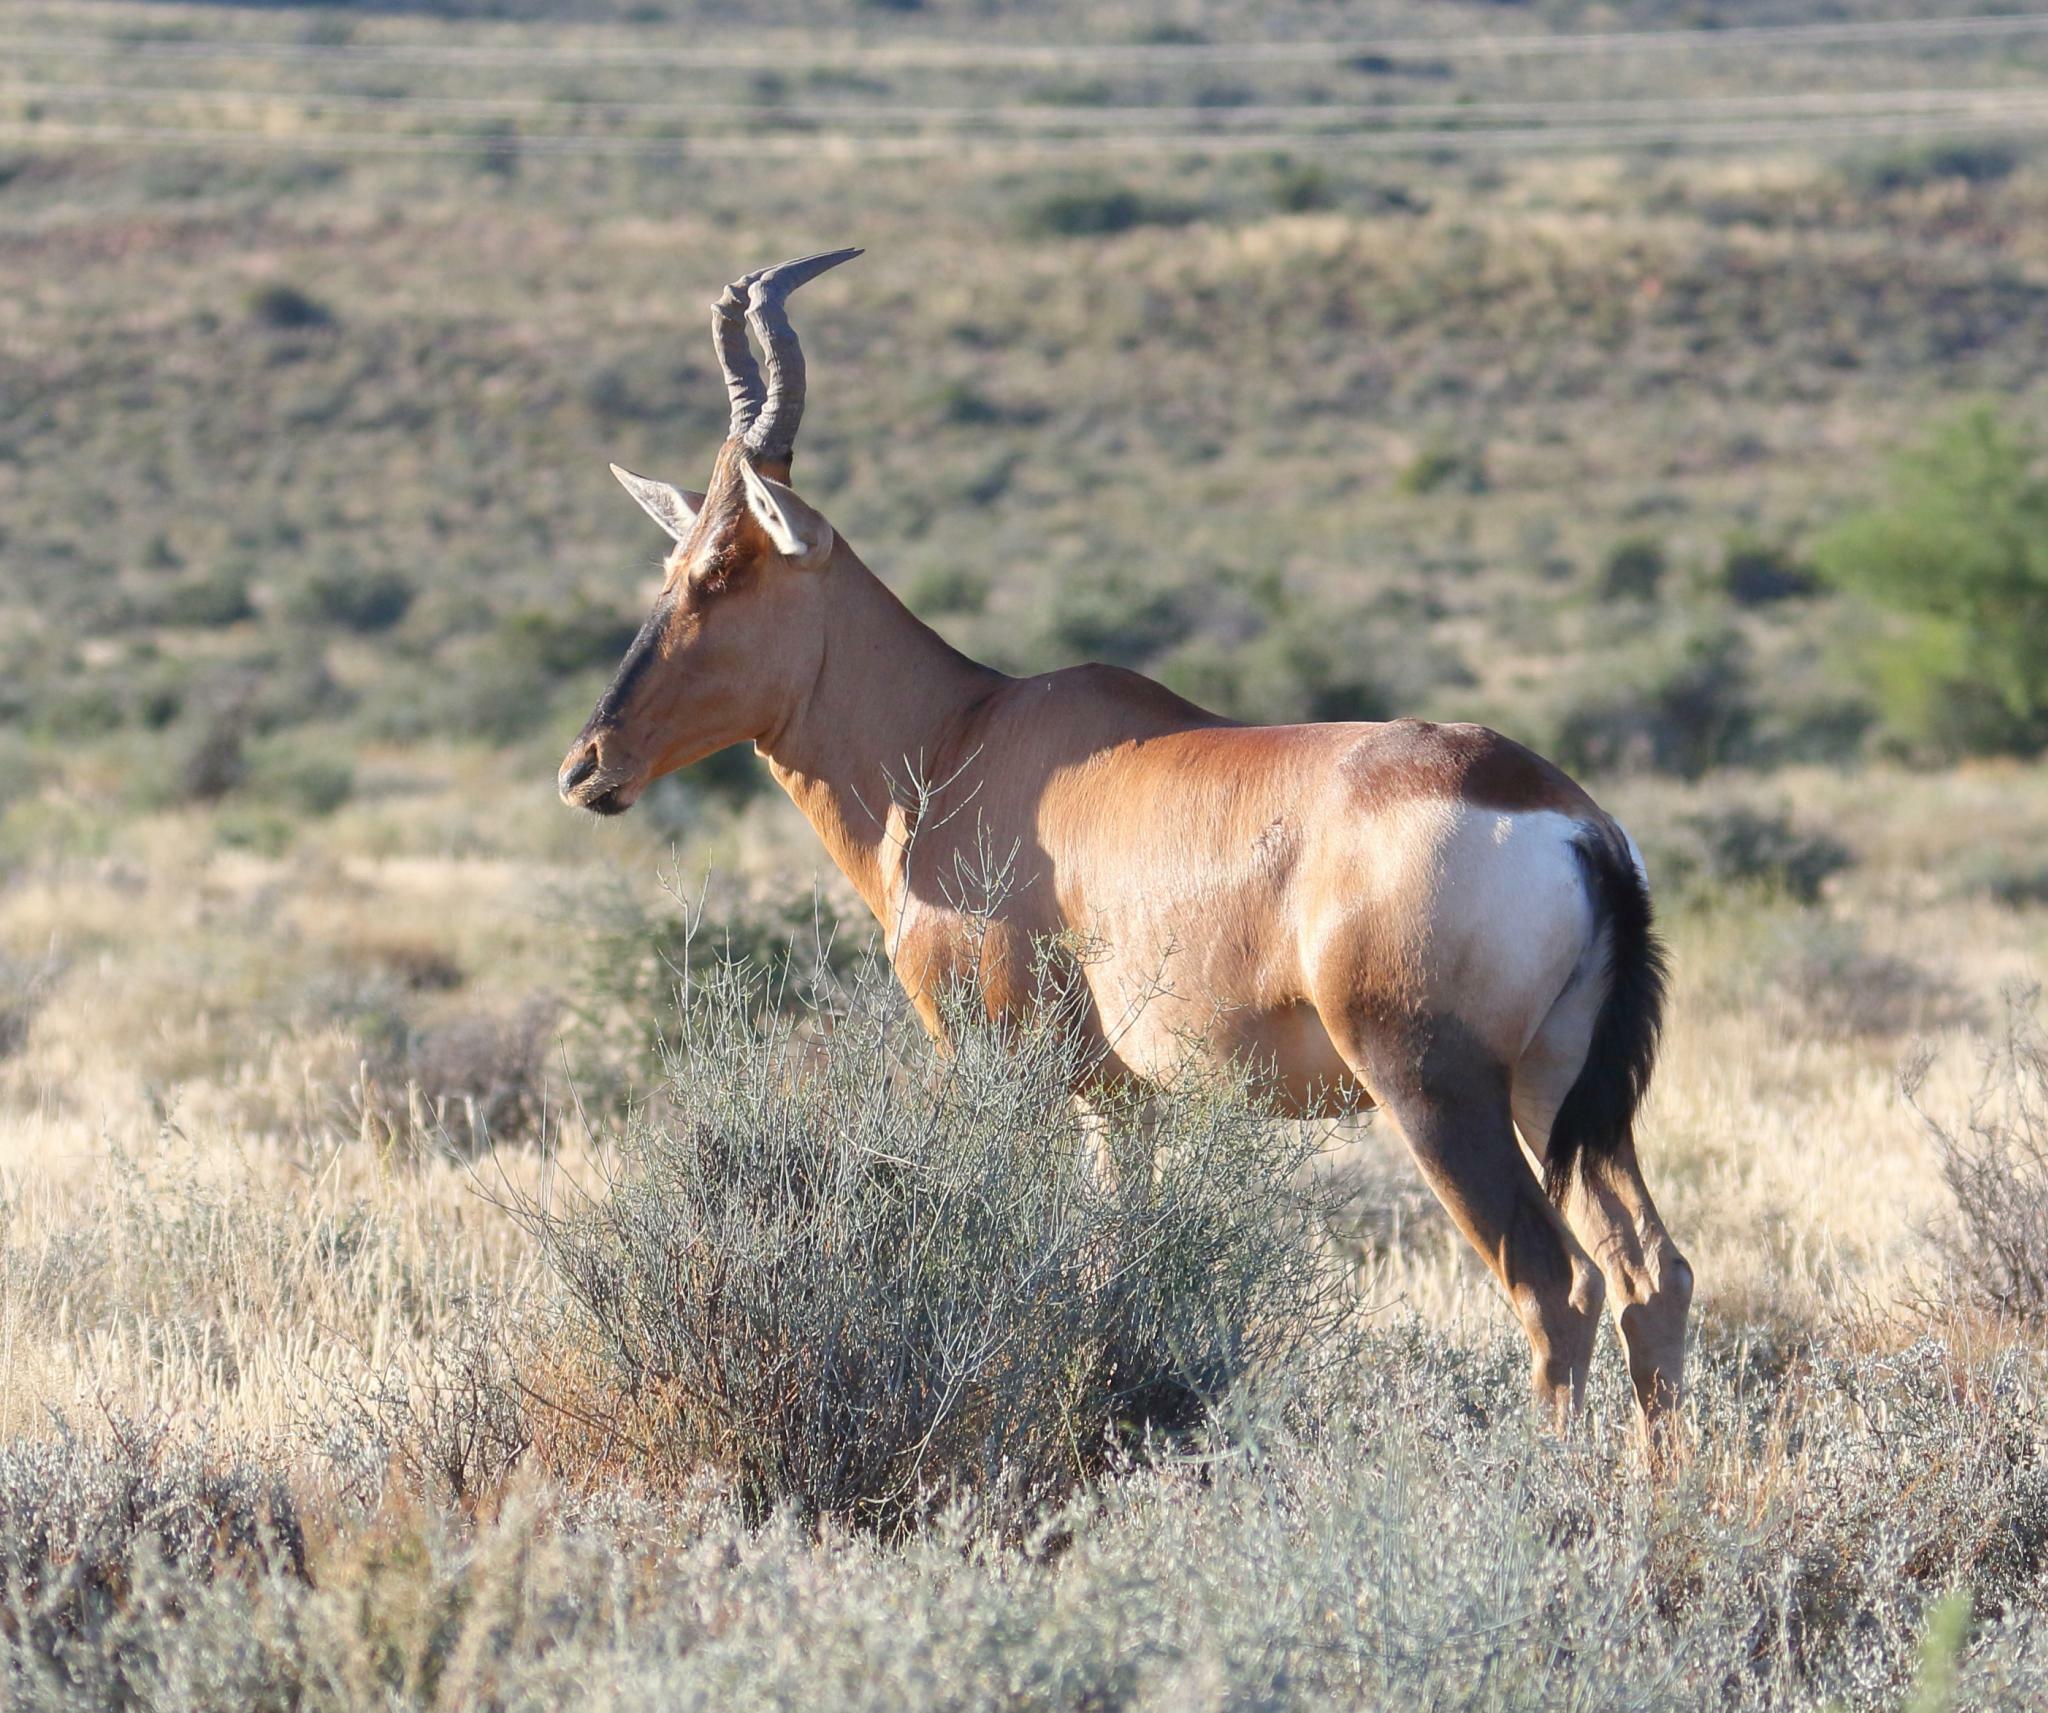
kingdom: Animalia
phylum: Chordata
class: Mammalia
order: Artiodactyla
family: Bovidae
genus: Alcelaphus
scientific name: Alcelaphus caama
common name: Red hartebeest
